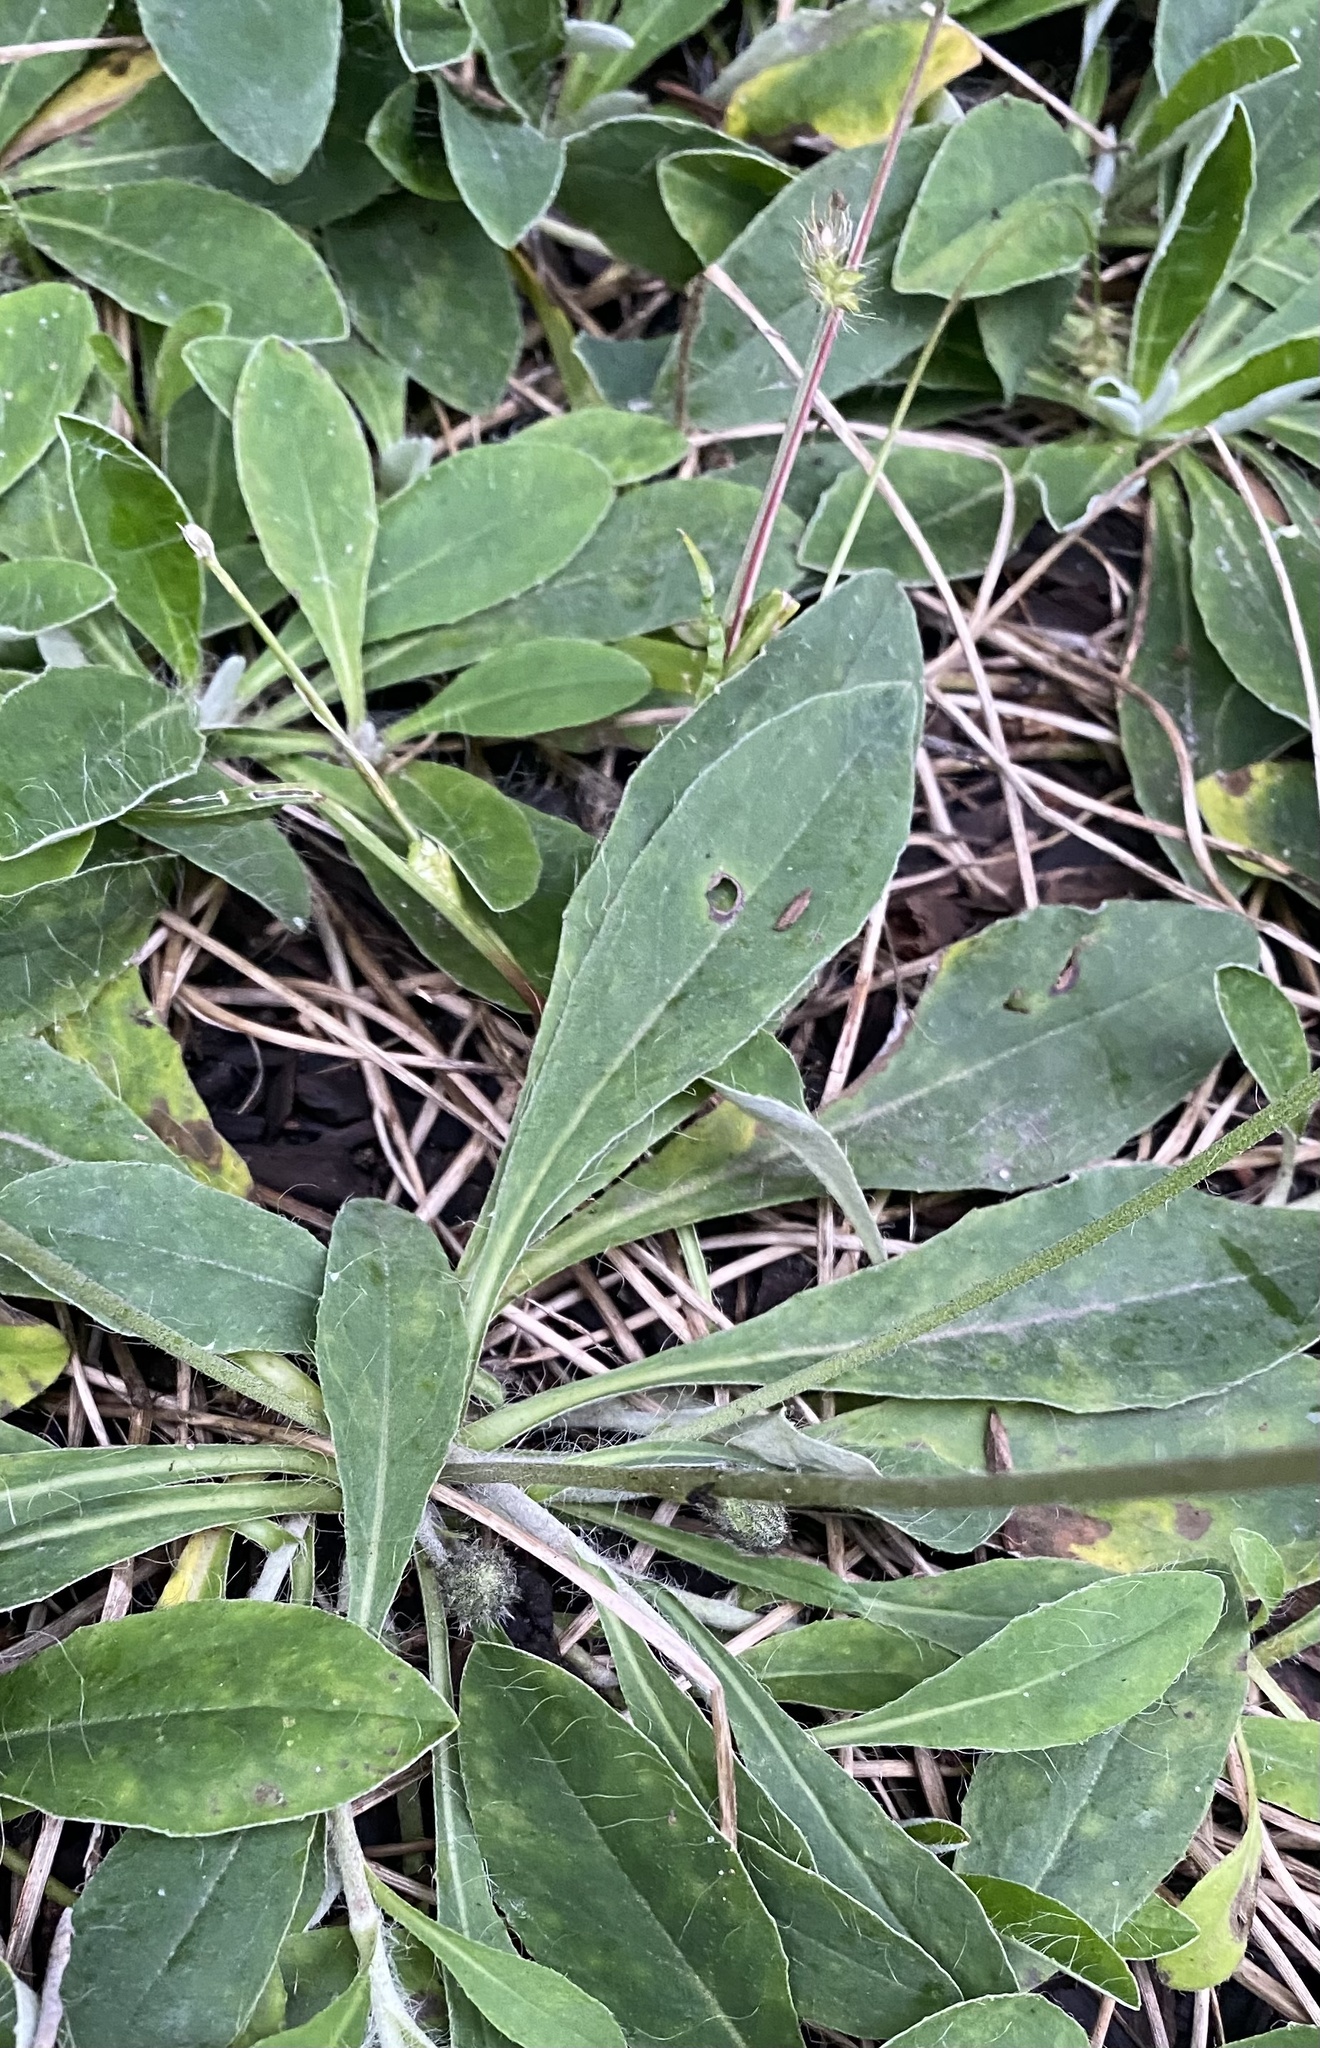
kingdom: Plantae
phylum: Tracheophyta
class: Magnoliopsida
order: Asterales
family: Asteraceae
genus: Pilosella
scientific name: Pilosella officinarum
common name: Mouse-ear hawkweed
